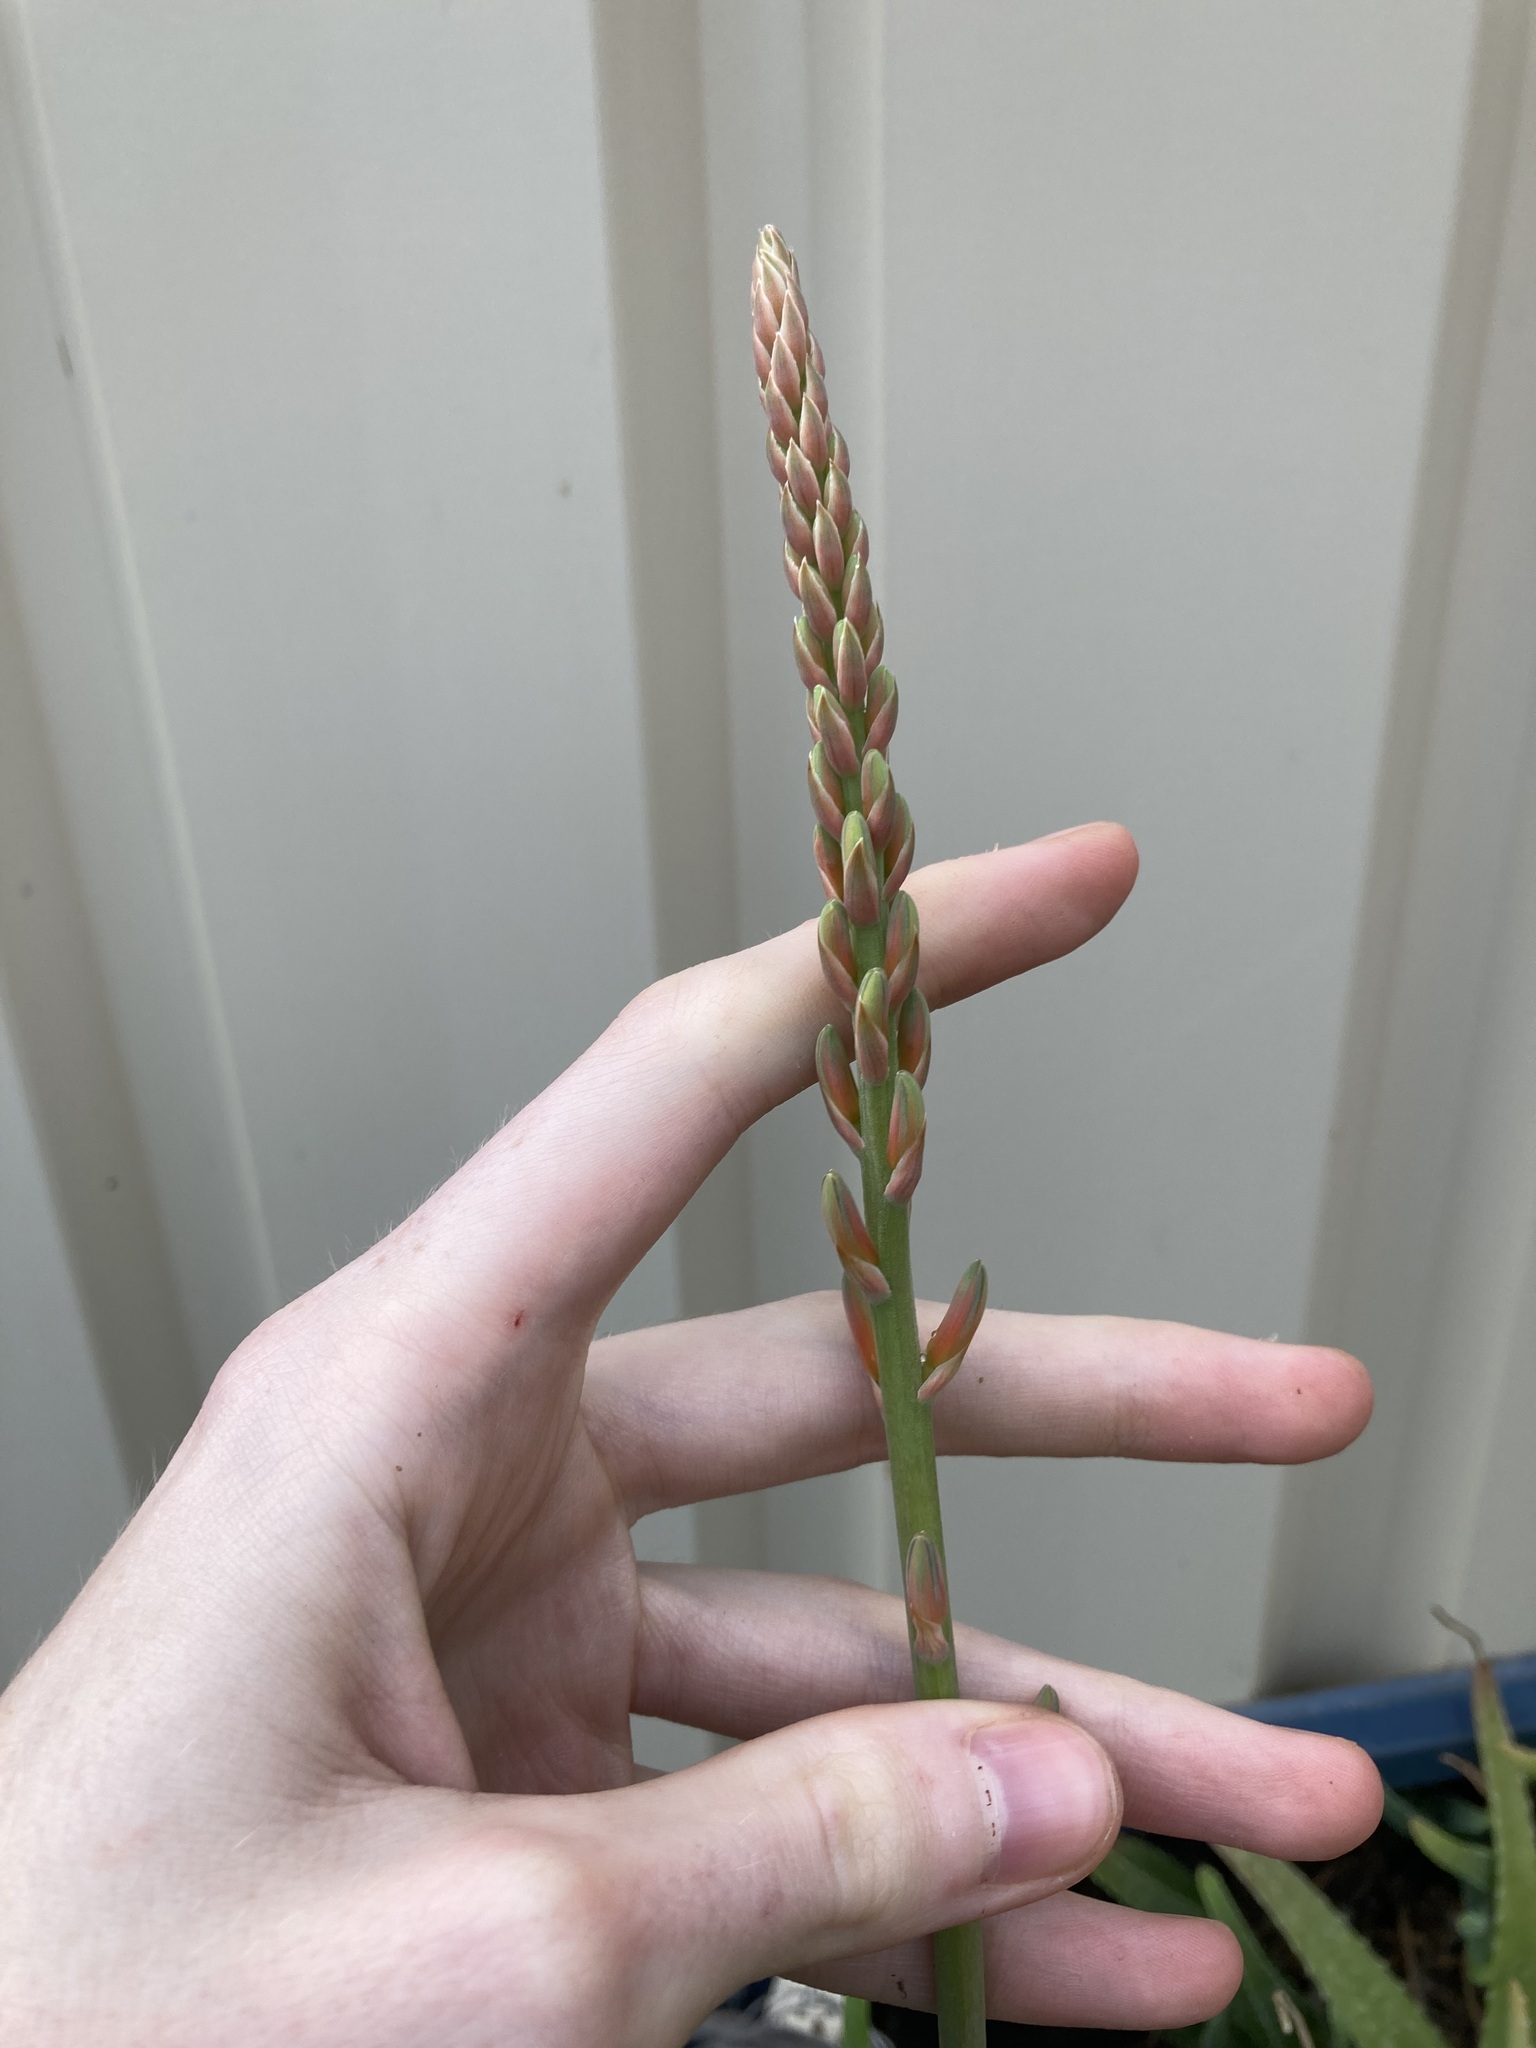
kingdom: Plantae
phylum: Tracheophyta
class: Liliopsida
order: Asparagales
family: Asphodelaceae
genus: Aloe
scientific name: Aloe vera
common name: Barbados aloe
